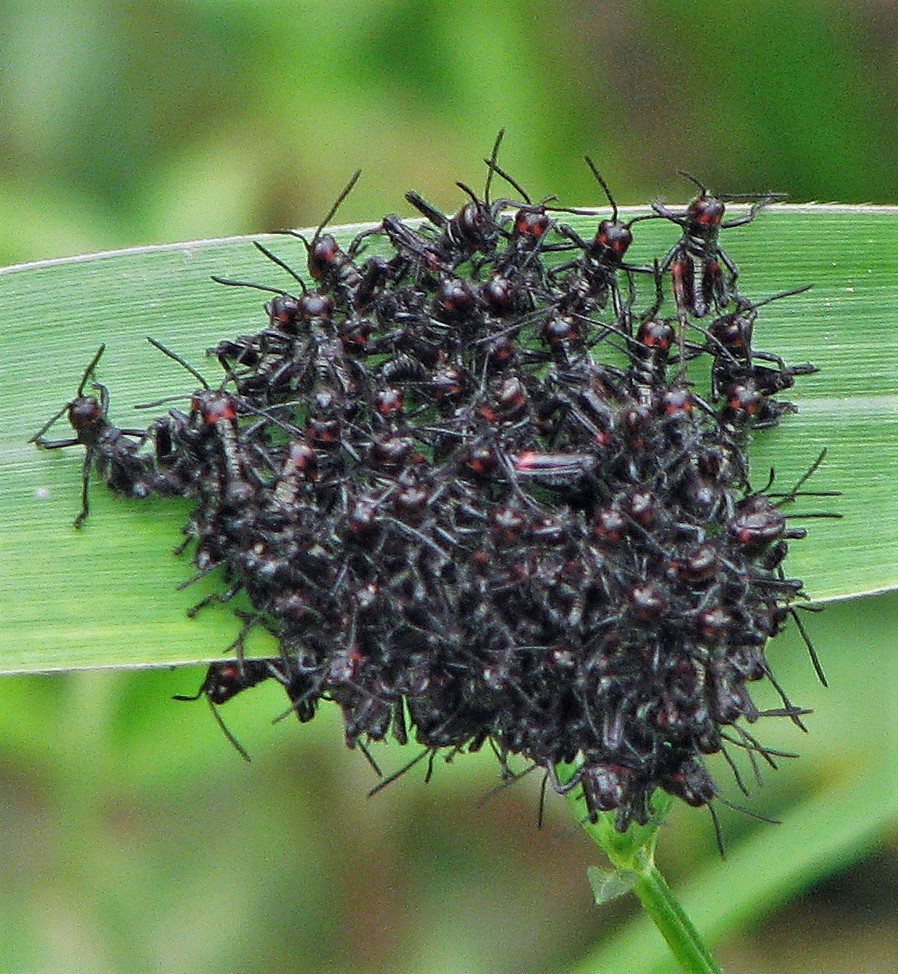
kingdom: Animalia
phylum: Arthropoda
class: Insecta
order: Orthoptera
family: Romaleidae
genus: Chromacris
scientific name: Chromacris speciosa
